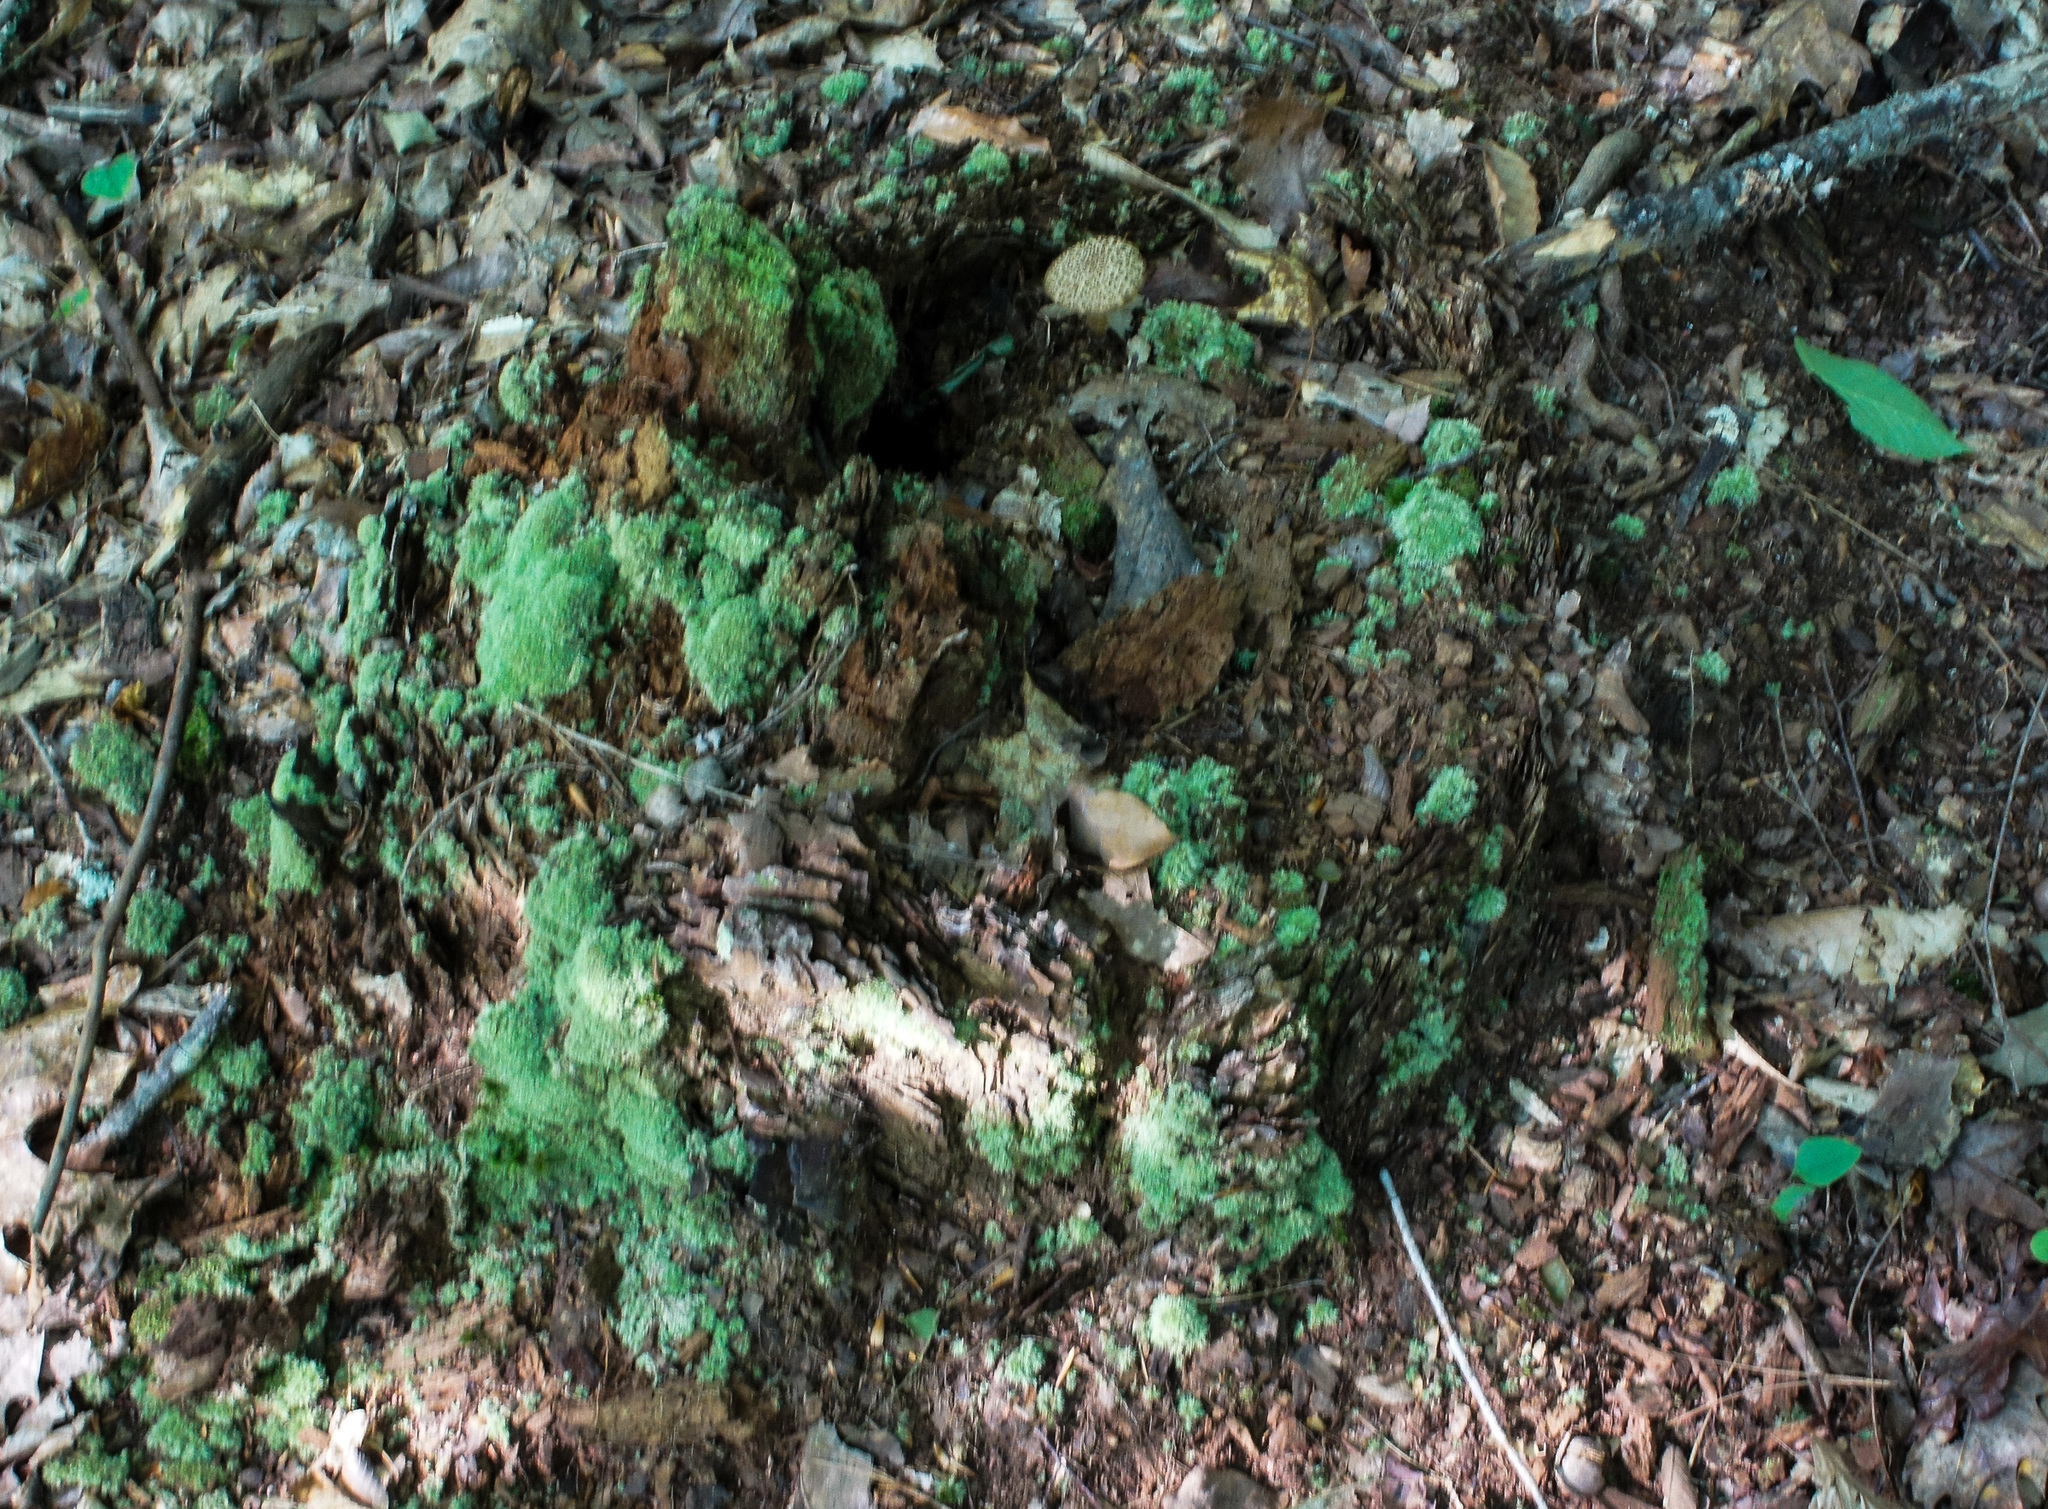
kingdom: Fungi
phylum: Basidiomycota
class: Agaricomycetes
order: Boletales
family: Boletaceae
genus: Boletellus
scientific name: Boletellus chrysenteroides
